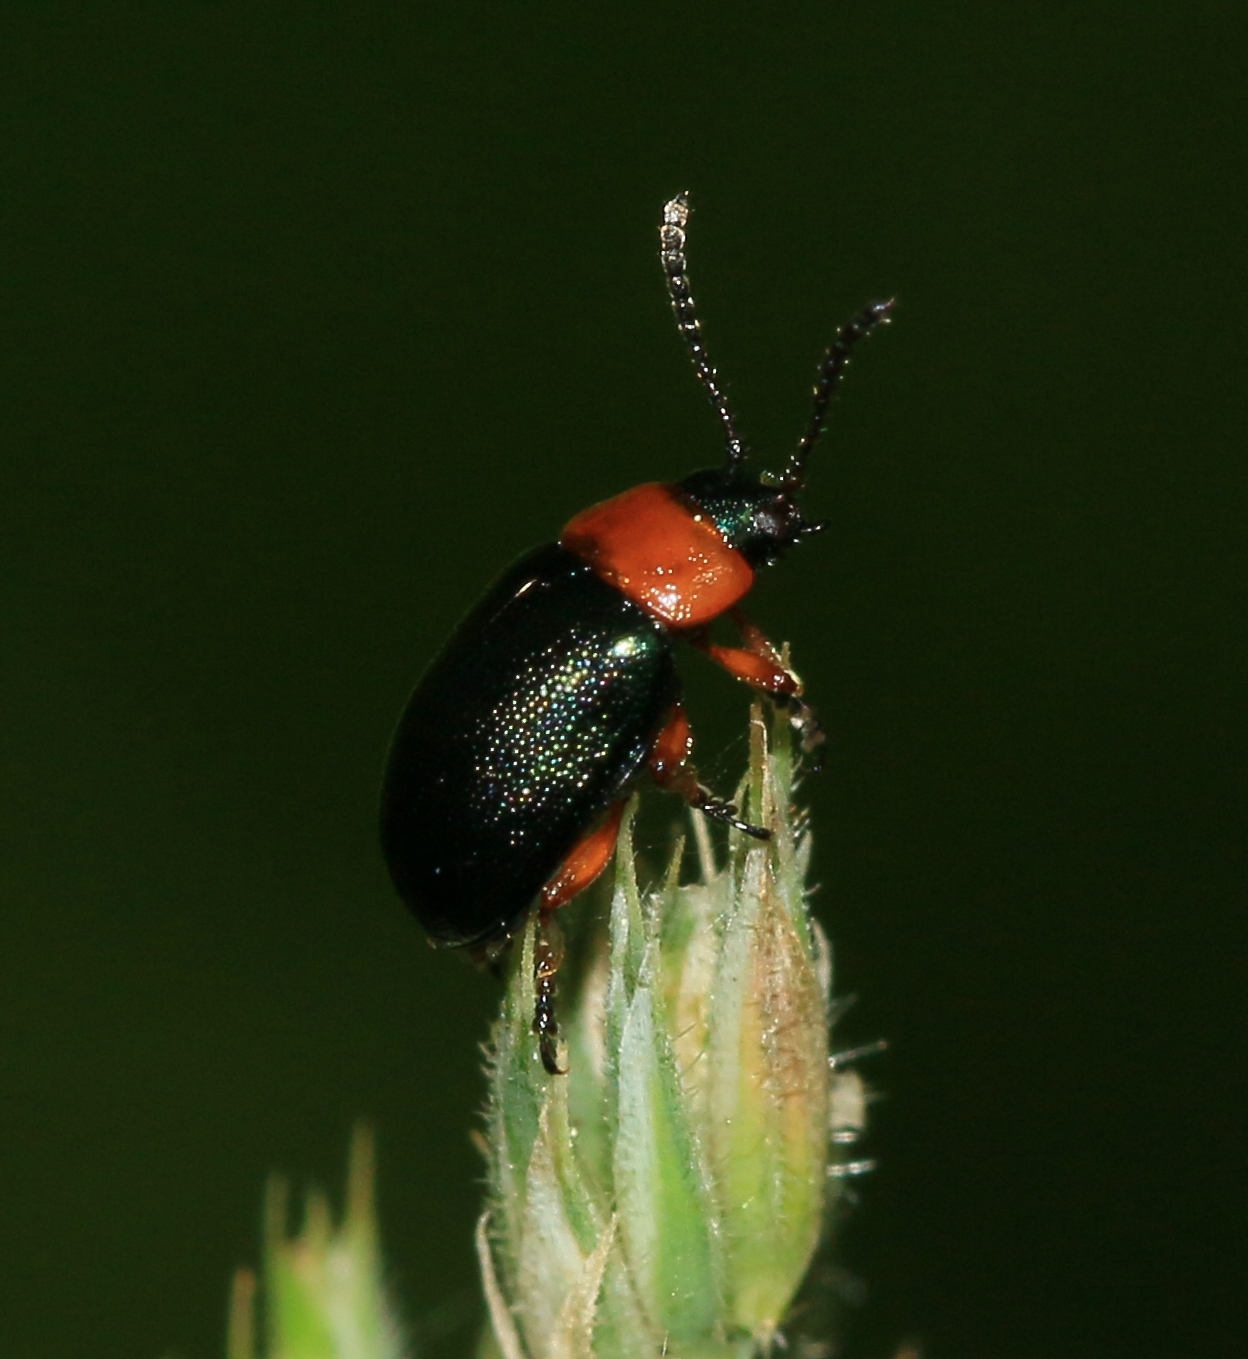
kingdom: Animalia
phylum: Arthropoda
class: Insecta
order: Coleoptera
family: Chrysomelidae
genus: Gastrophysa
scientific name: Gastrophysa polygoni
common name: Knotweed leaf beetle
